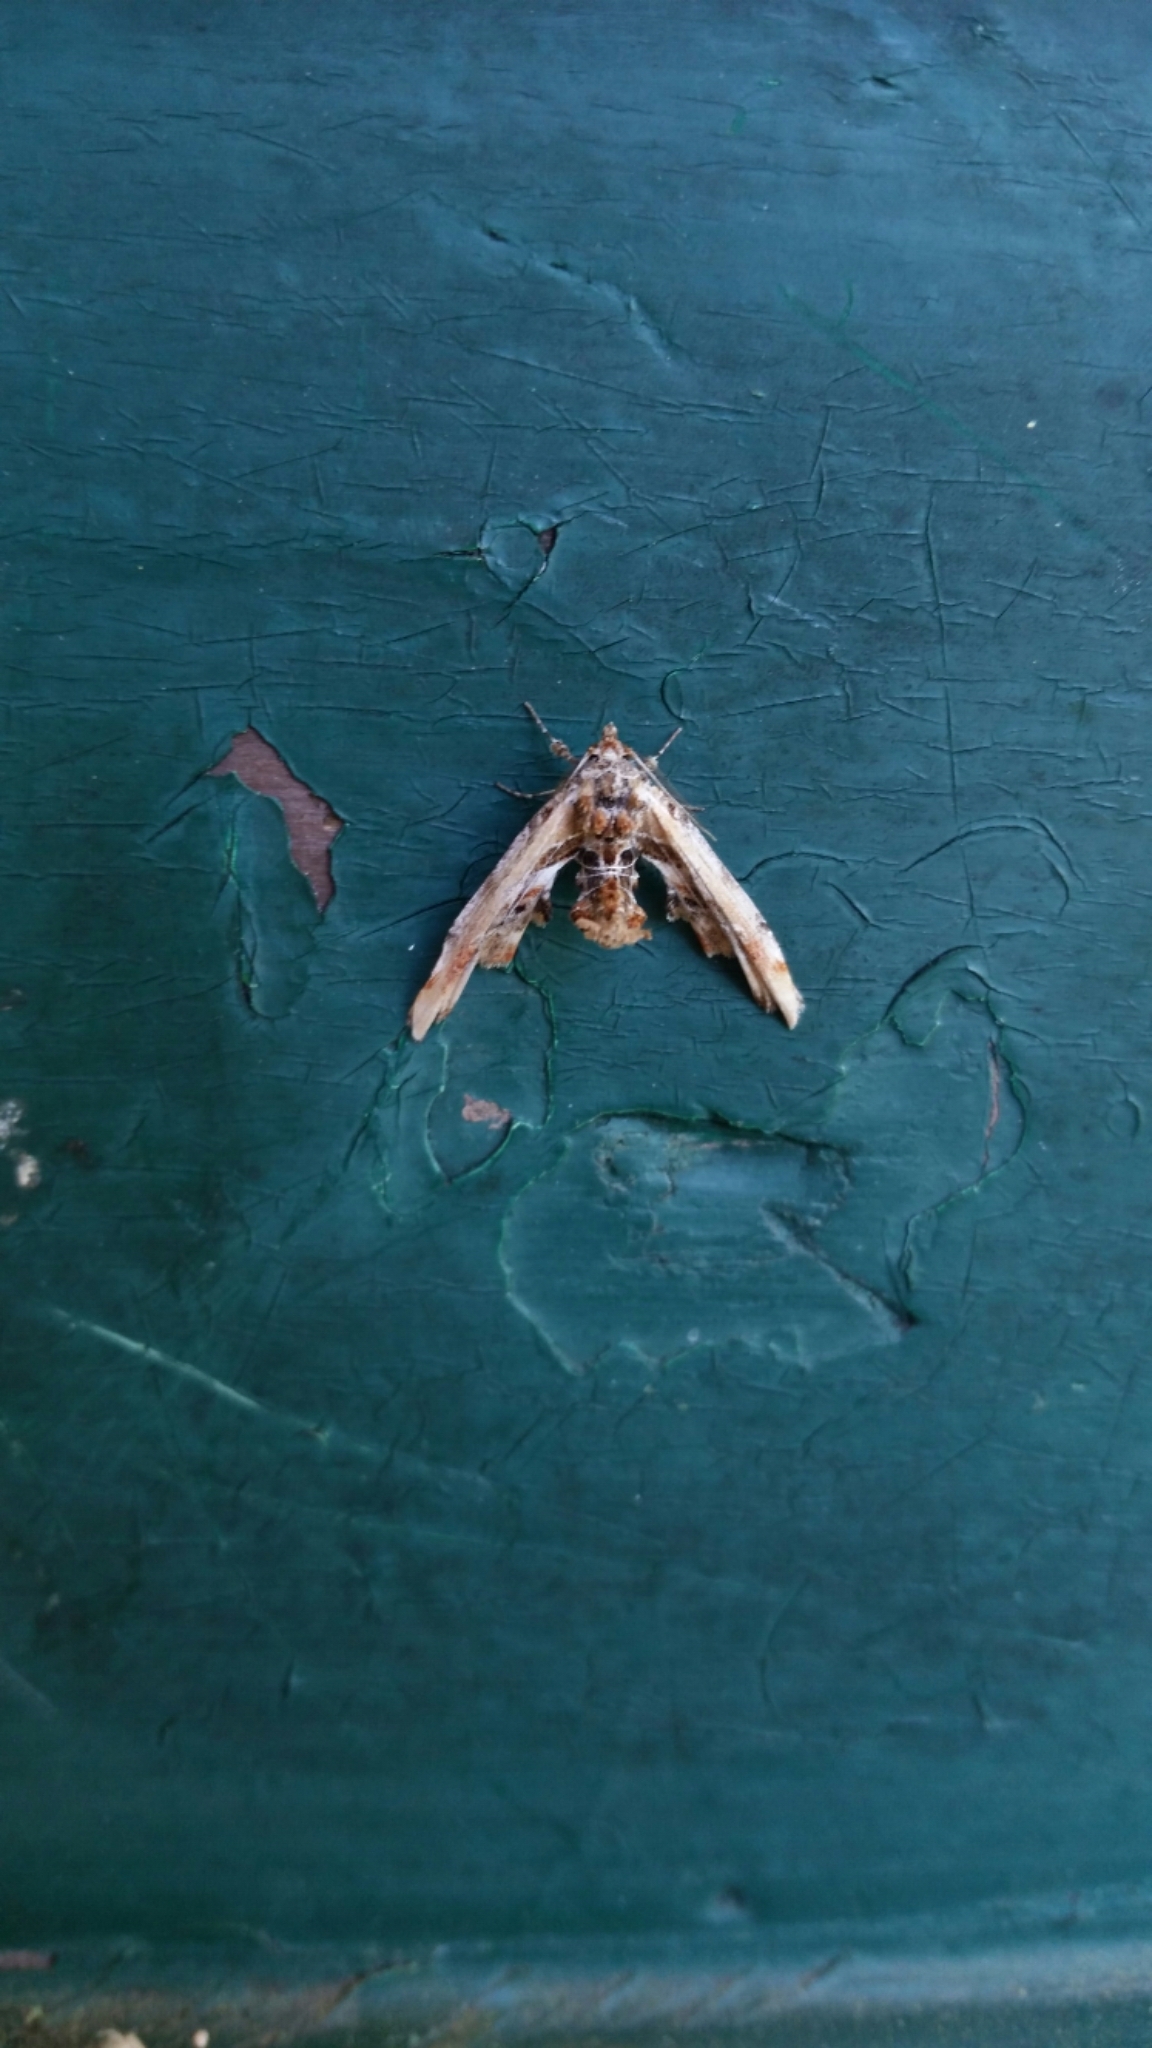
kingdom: Animalia
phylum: Arthropoda
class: Insecta
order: Lepidoptera
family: Euteliidae
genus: Marathyssa
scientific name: Marathyssa basalis
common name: Light marathyssa moth
